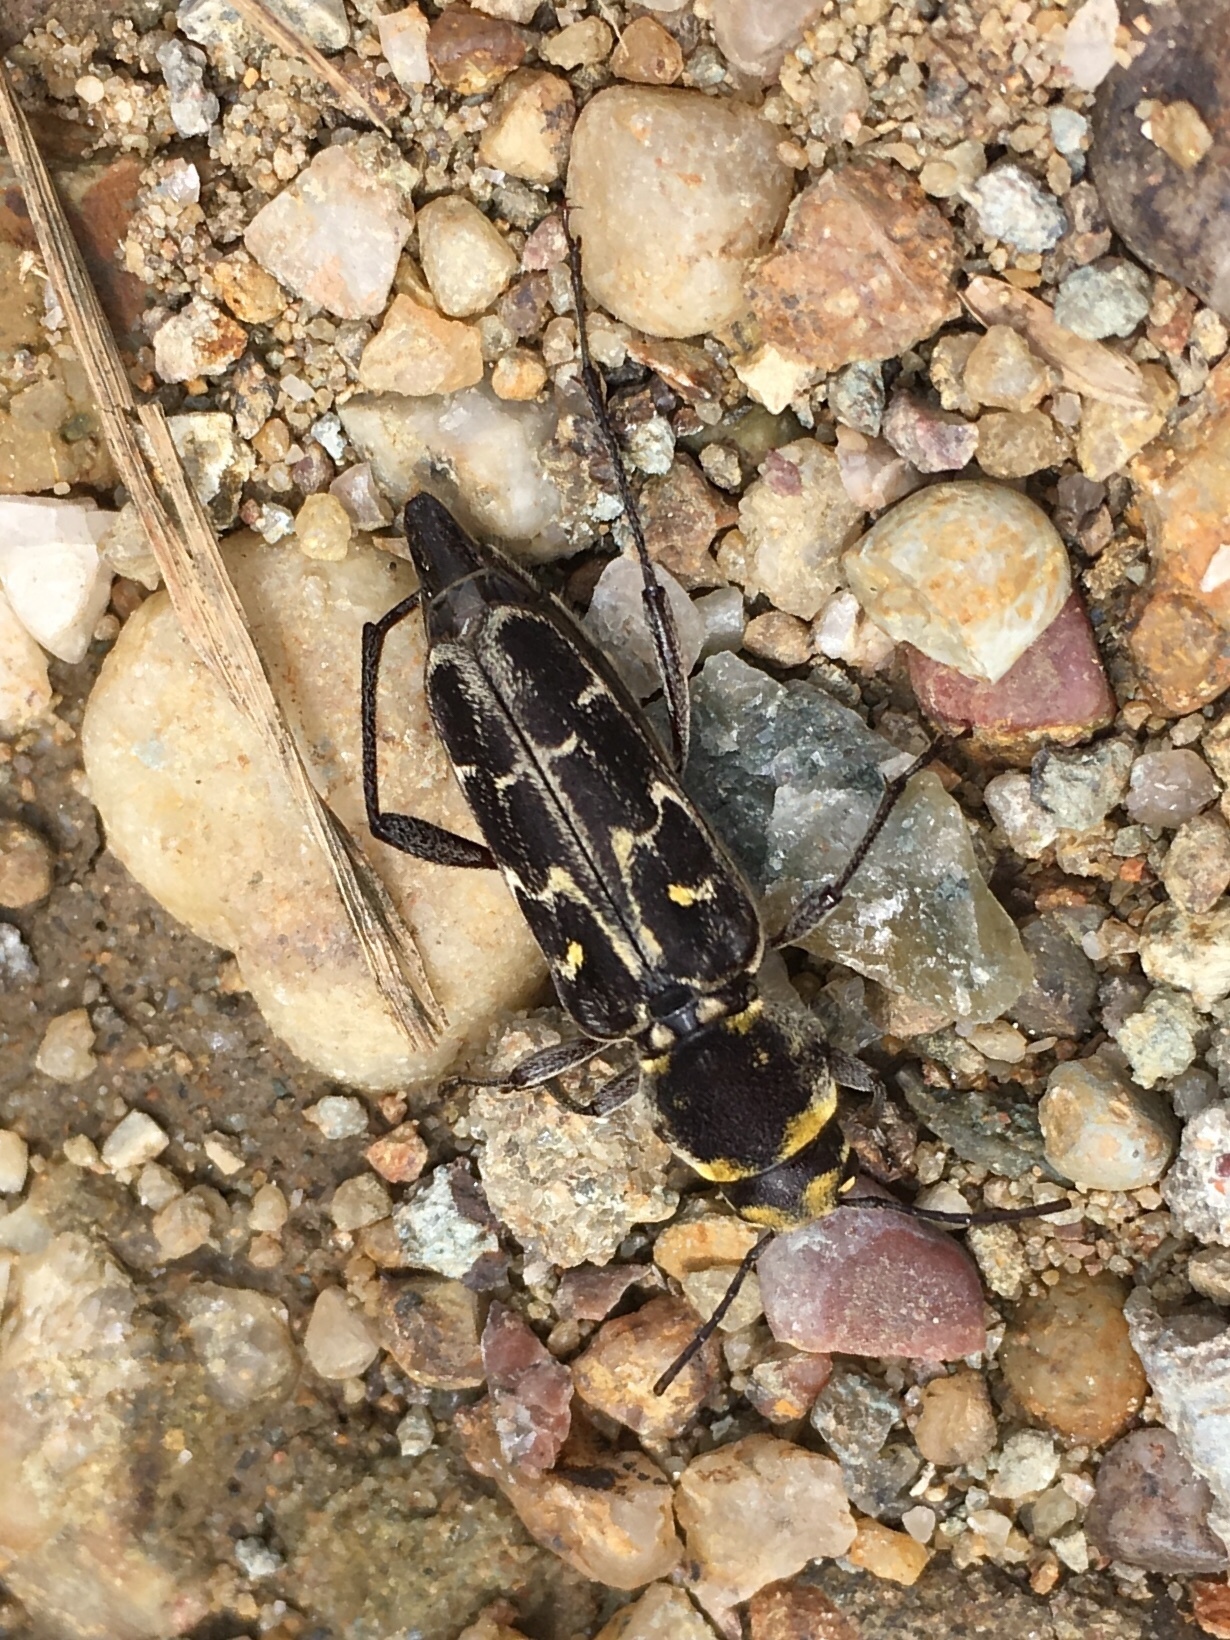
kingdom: Animalia
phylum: Arthropoda
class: Insecta
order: Coleoptera
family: Cerambycidae
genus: Xylotrechus
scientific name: Xylotrechus undulatus
